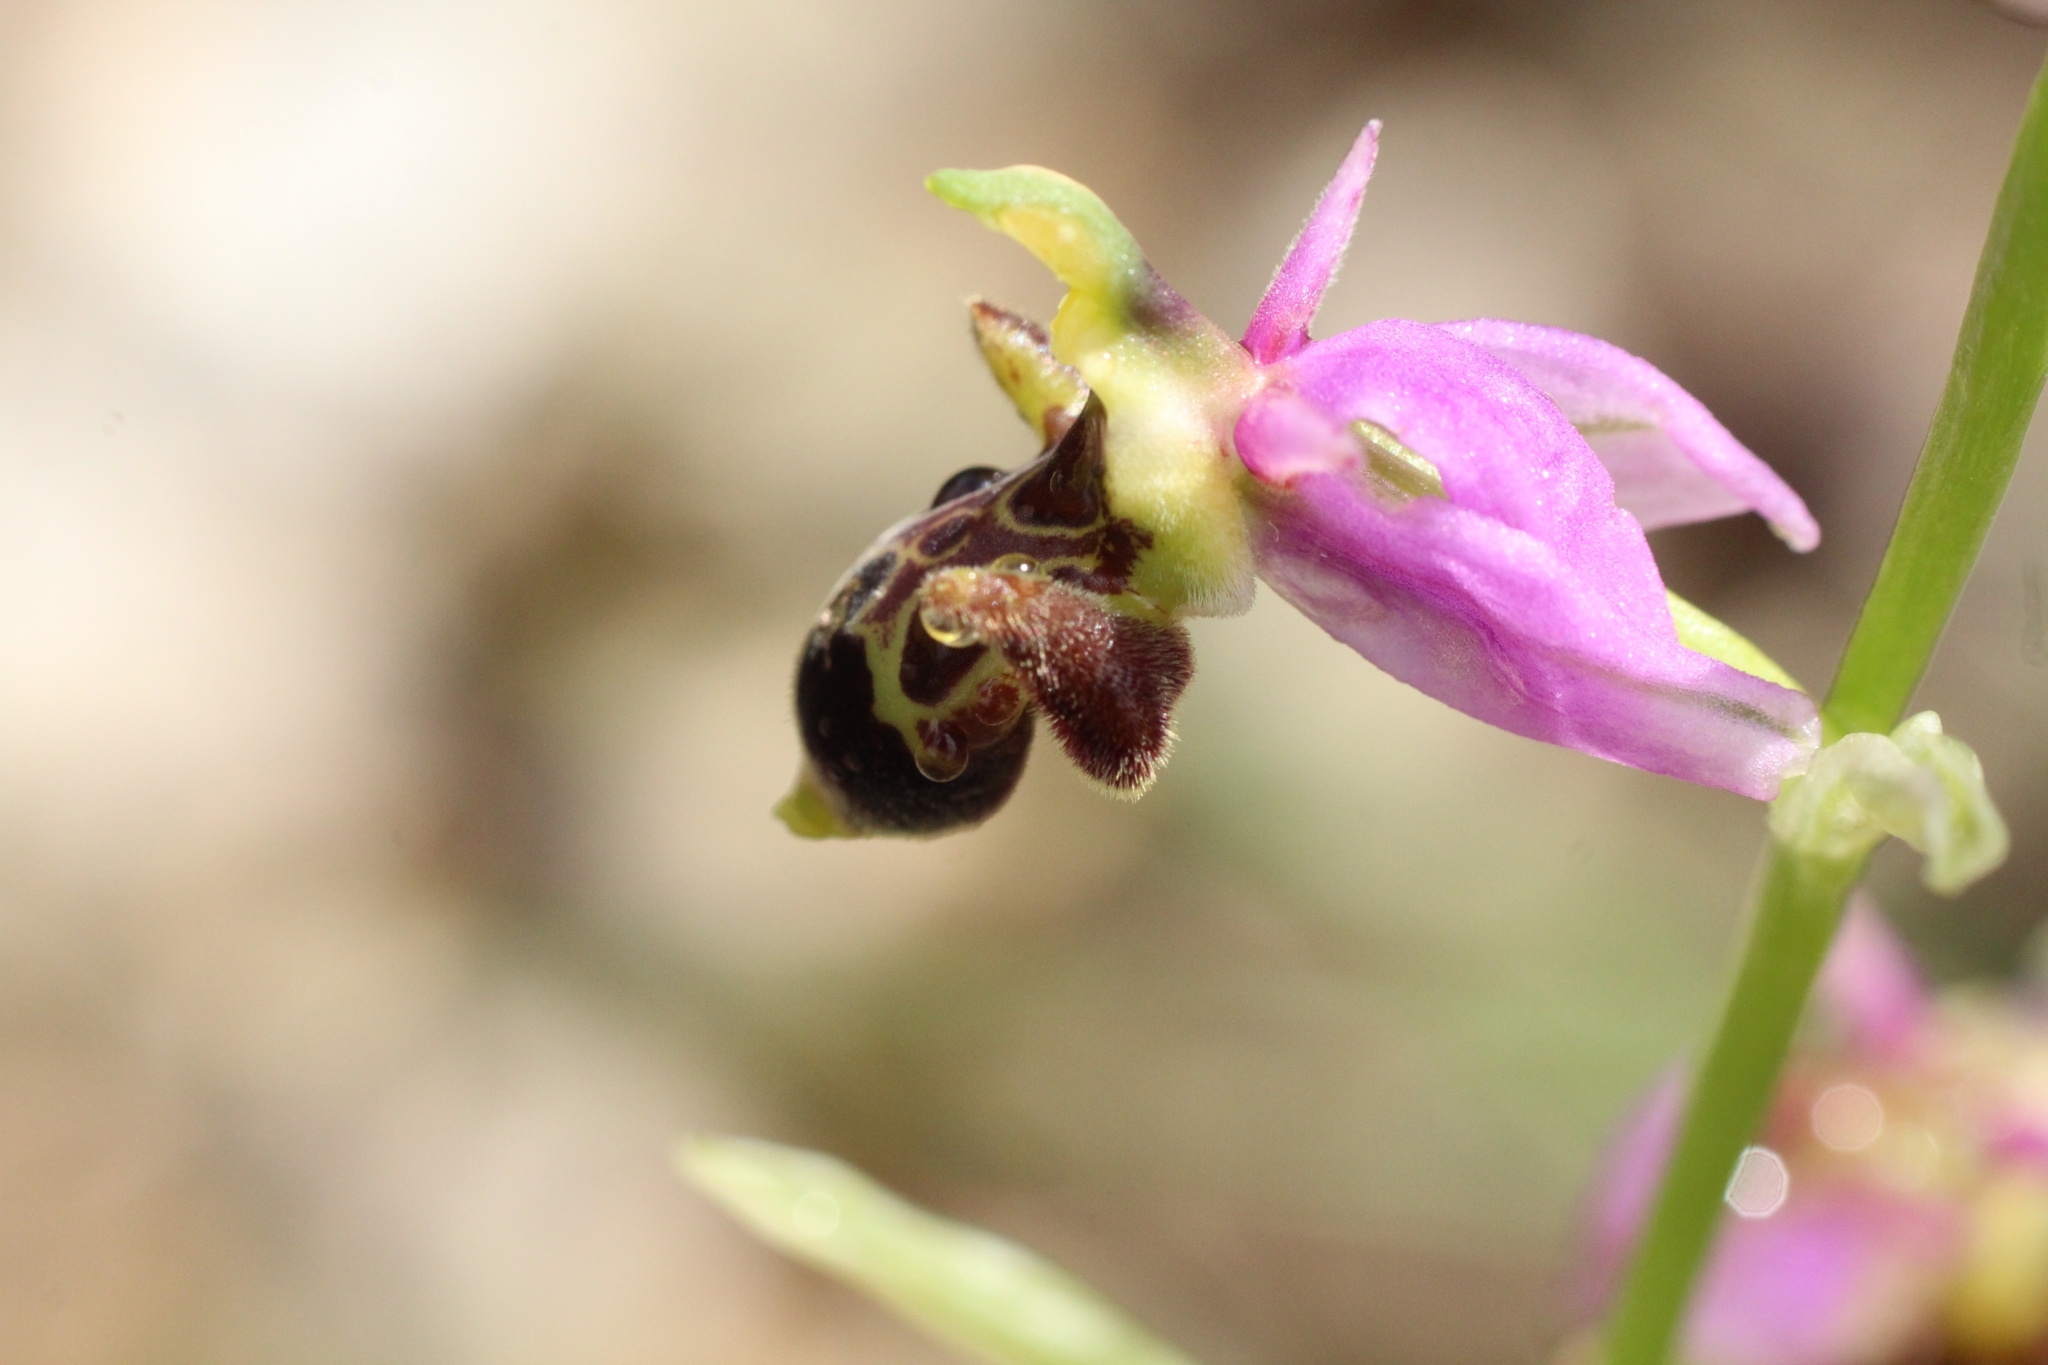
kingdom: Plantae
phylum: Tracheophyta
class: Liliopsida
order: Asparagales
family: Orchidaceae
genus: Ophrys
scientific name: Ophrys scolopax
